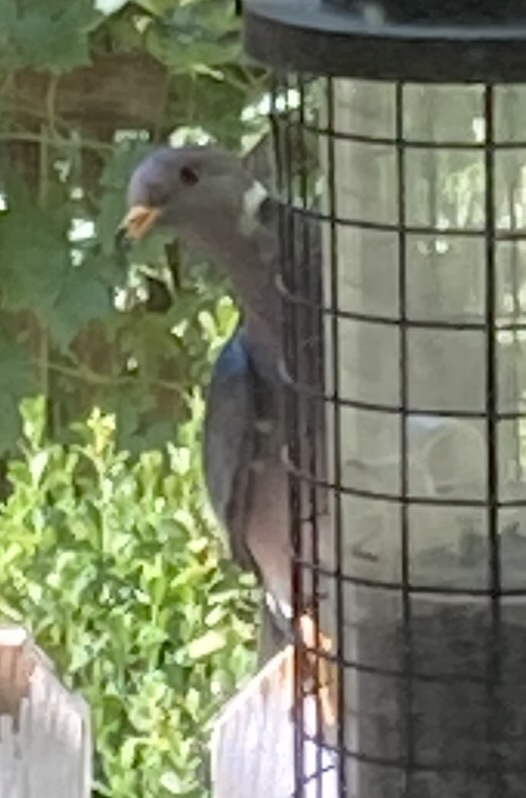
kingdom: Animalia
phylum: Chordata
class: Aves
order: Columbiformes
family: Columbidae
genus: Patagioenas
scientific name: Patagioenas fasciata
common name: Band-tailed pigeon
